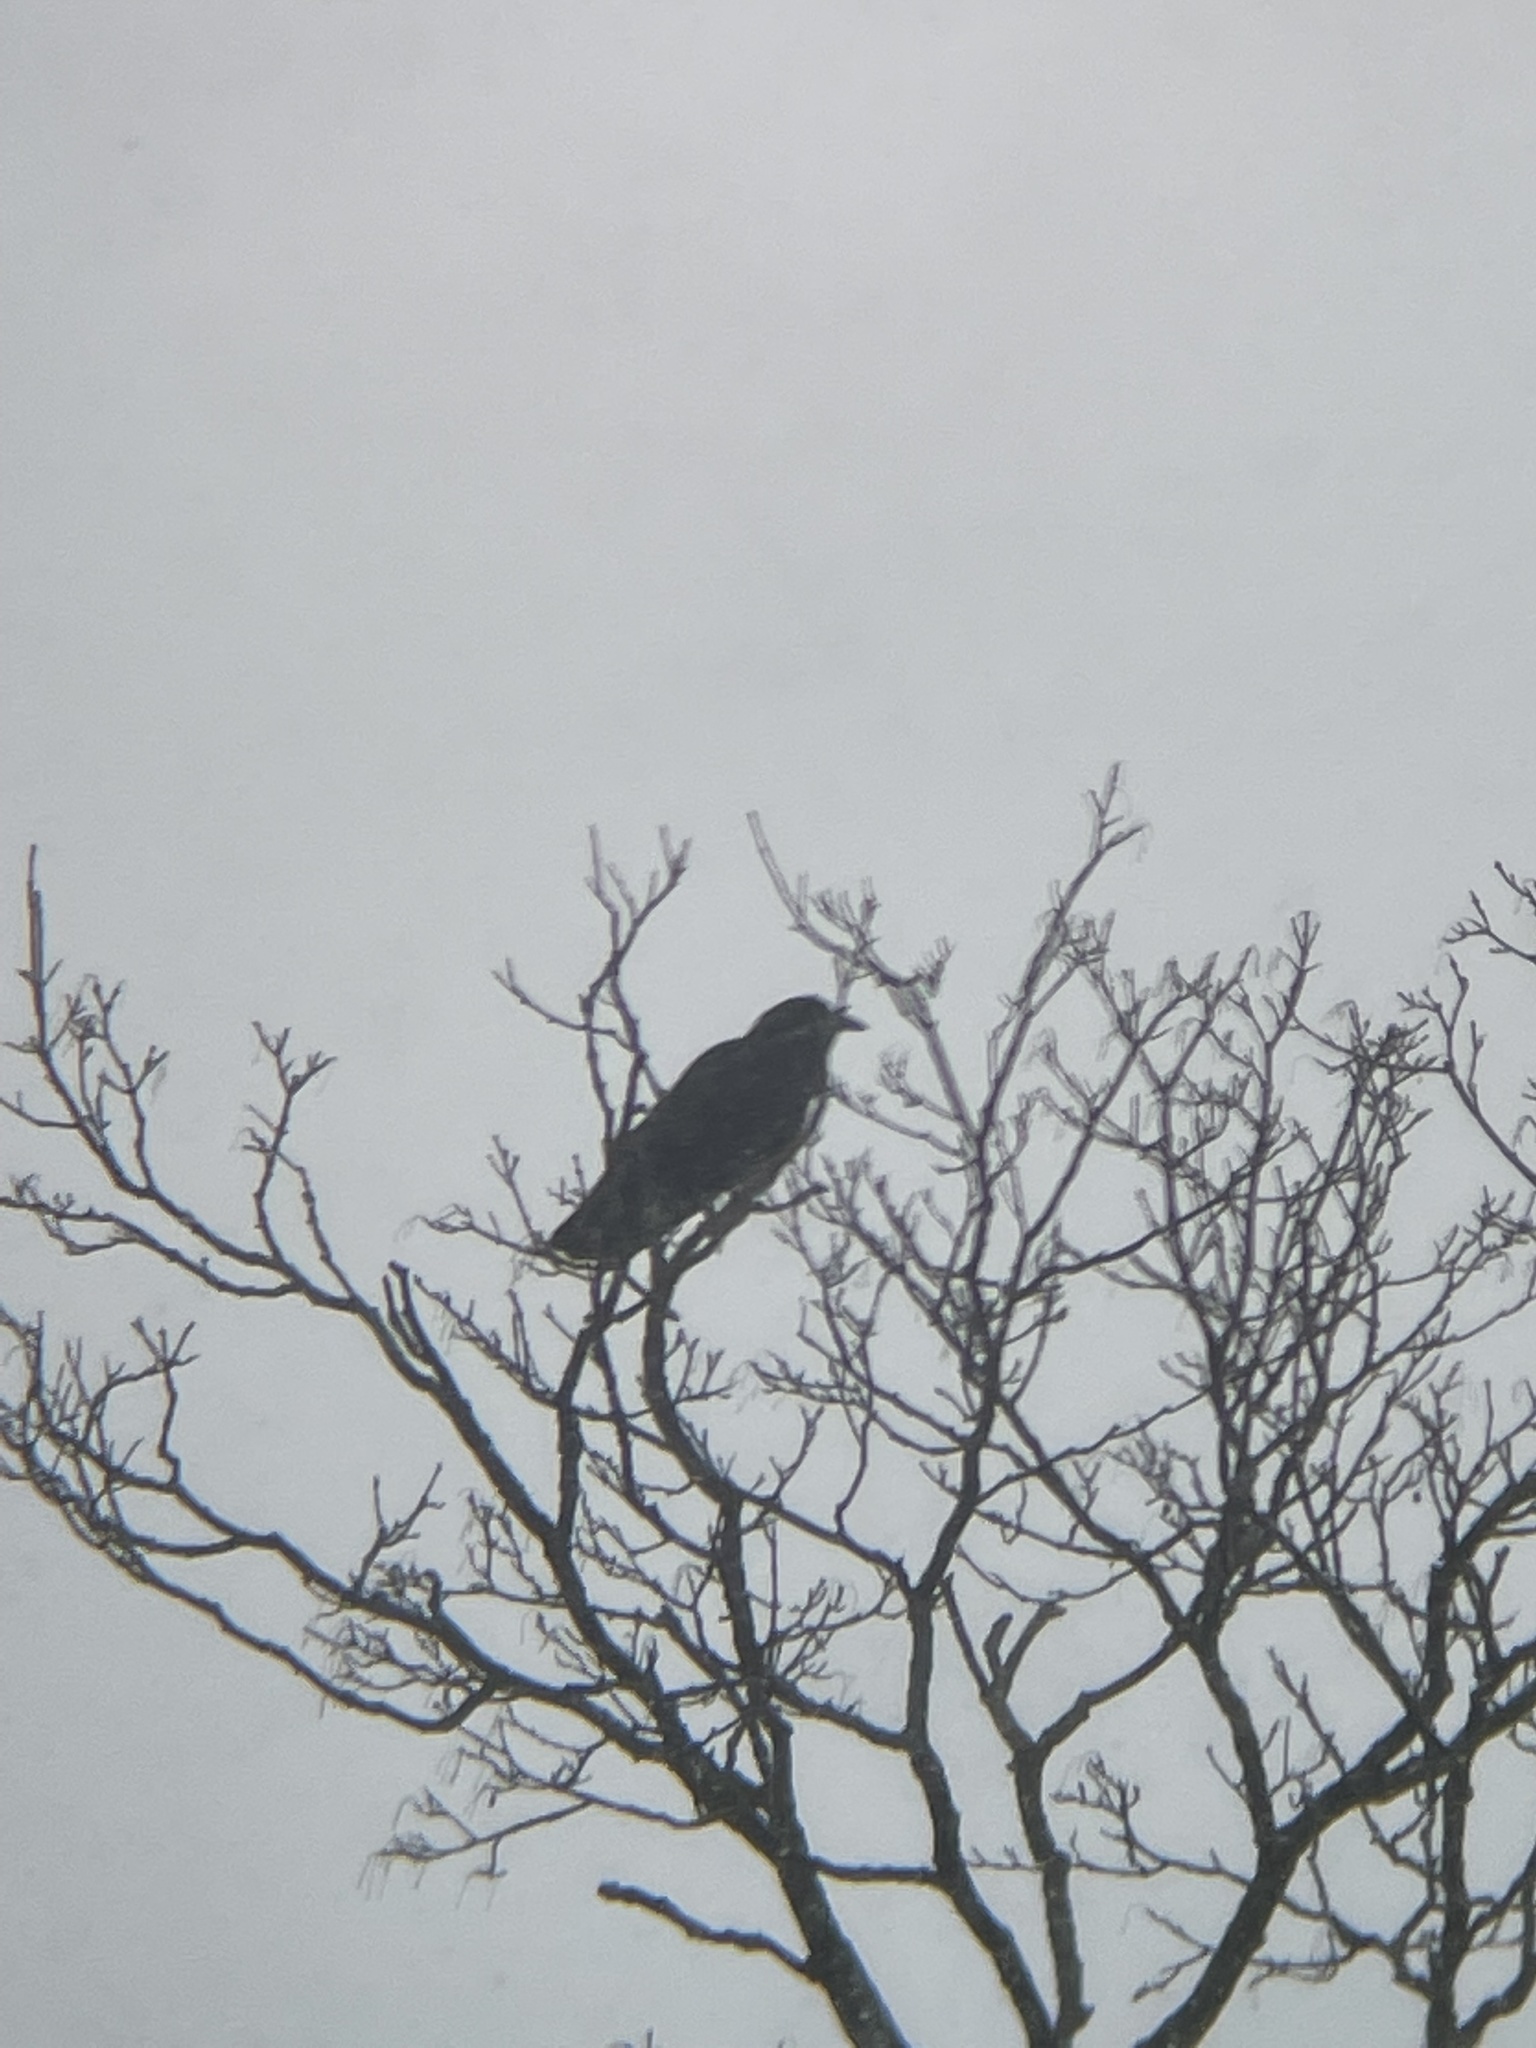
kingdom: Animalia
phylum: Chordata
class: Aves
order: Passeriformes
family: Corvidae
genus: Corvus
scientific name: Corvus brachyrhynchos
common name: American crow
